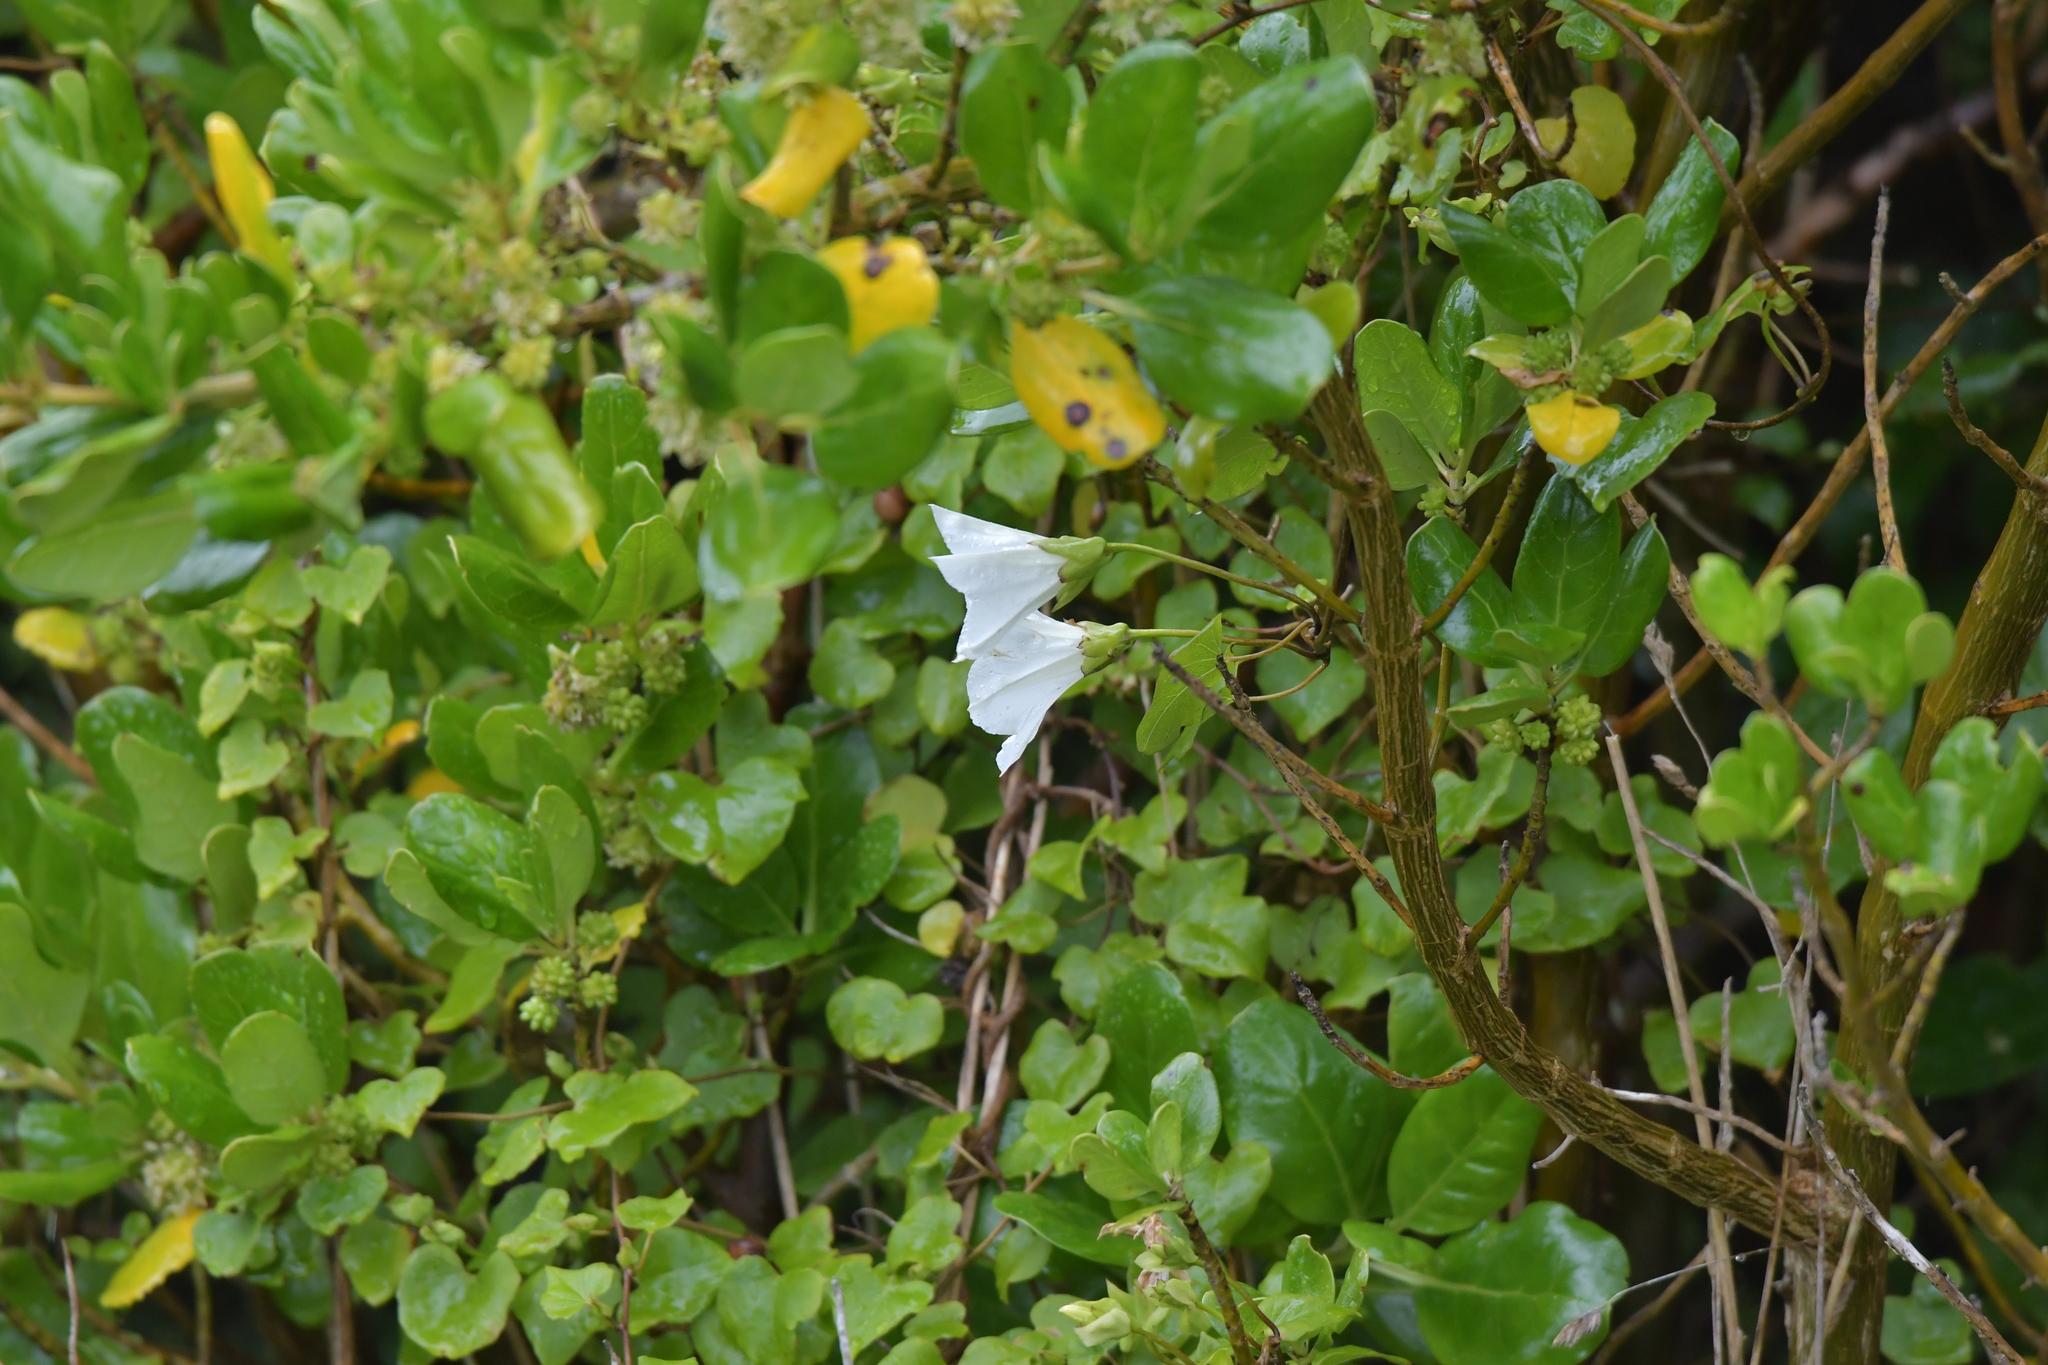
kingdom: Plantae
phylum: Tracheophyta
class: Magnoliopsida
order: Solanales
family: Convolvulaceae
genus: Calystegia
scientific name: Calystegia tuguriorum
